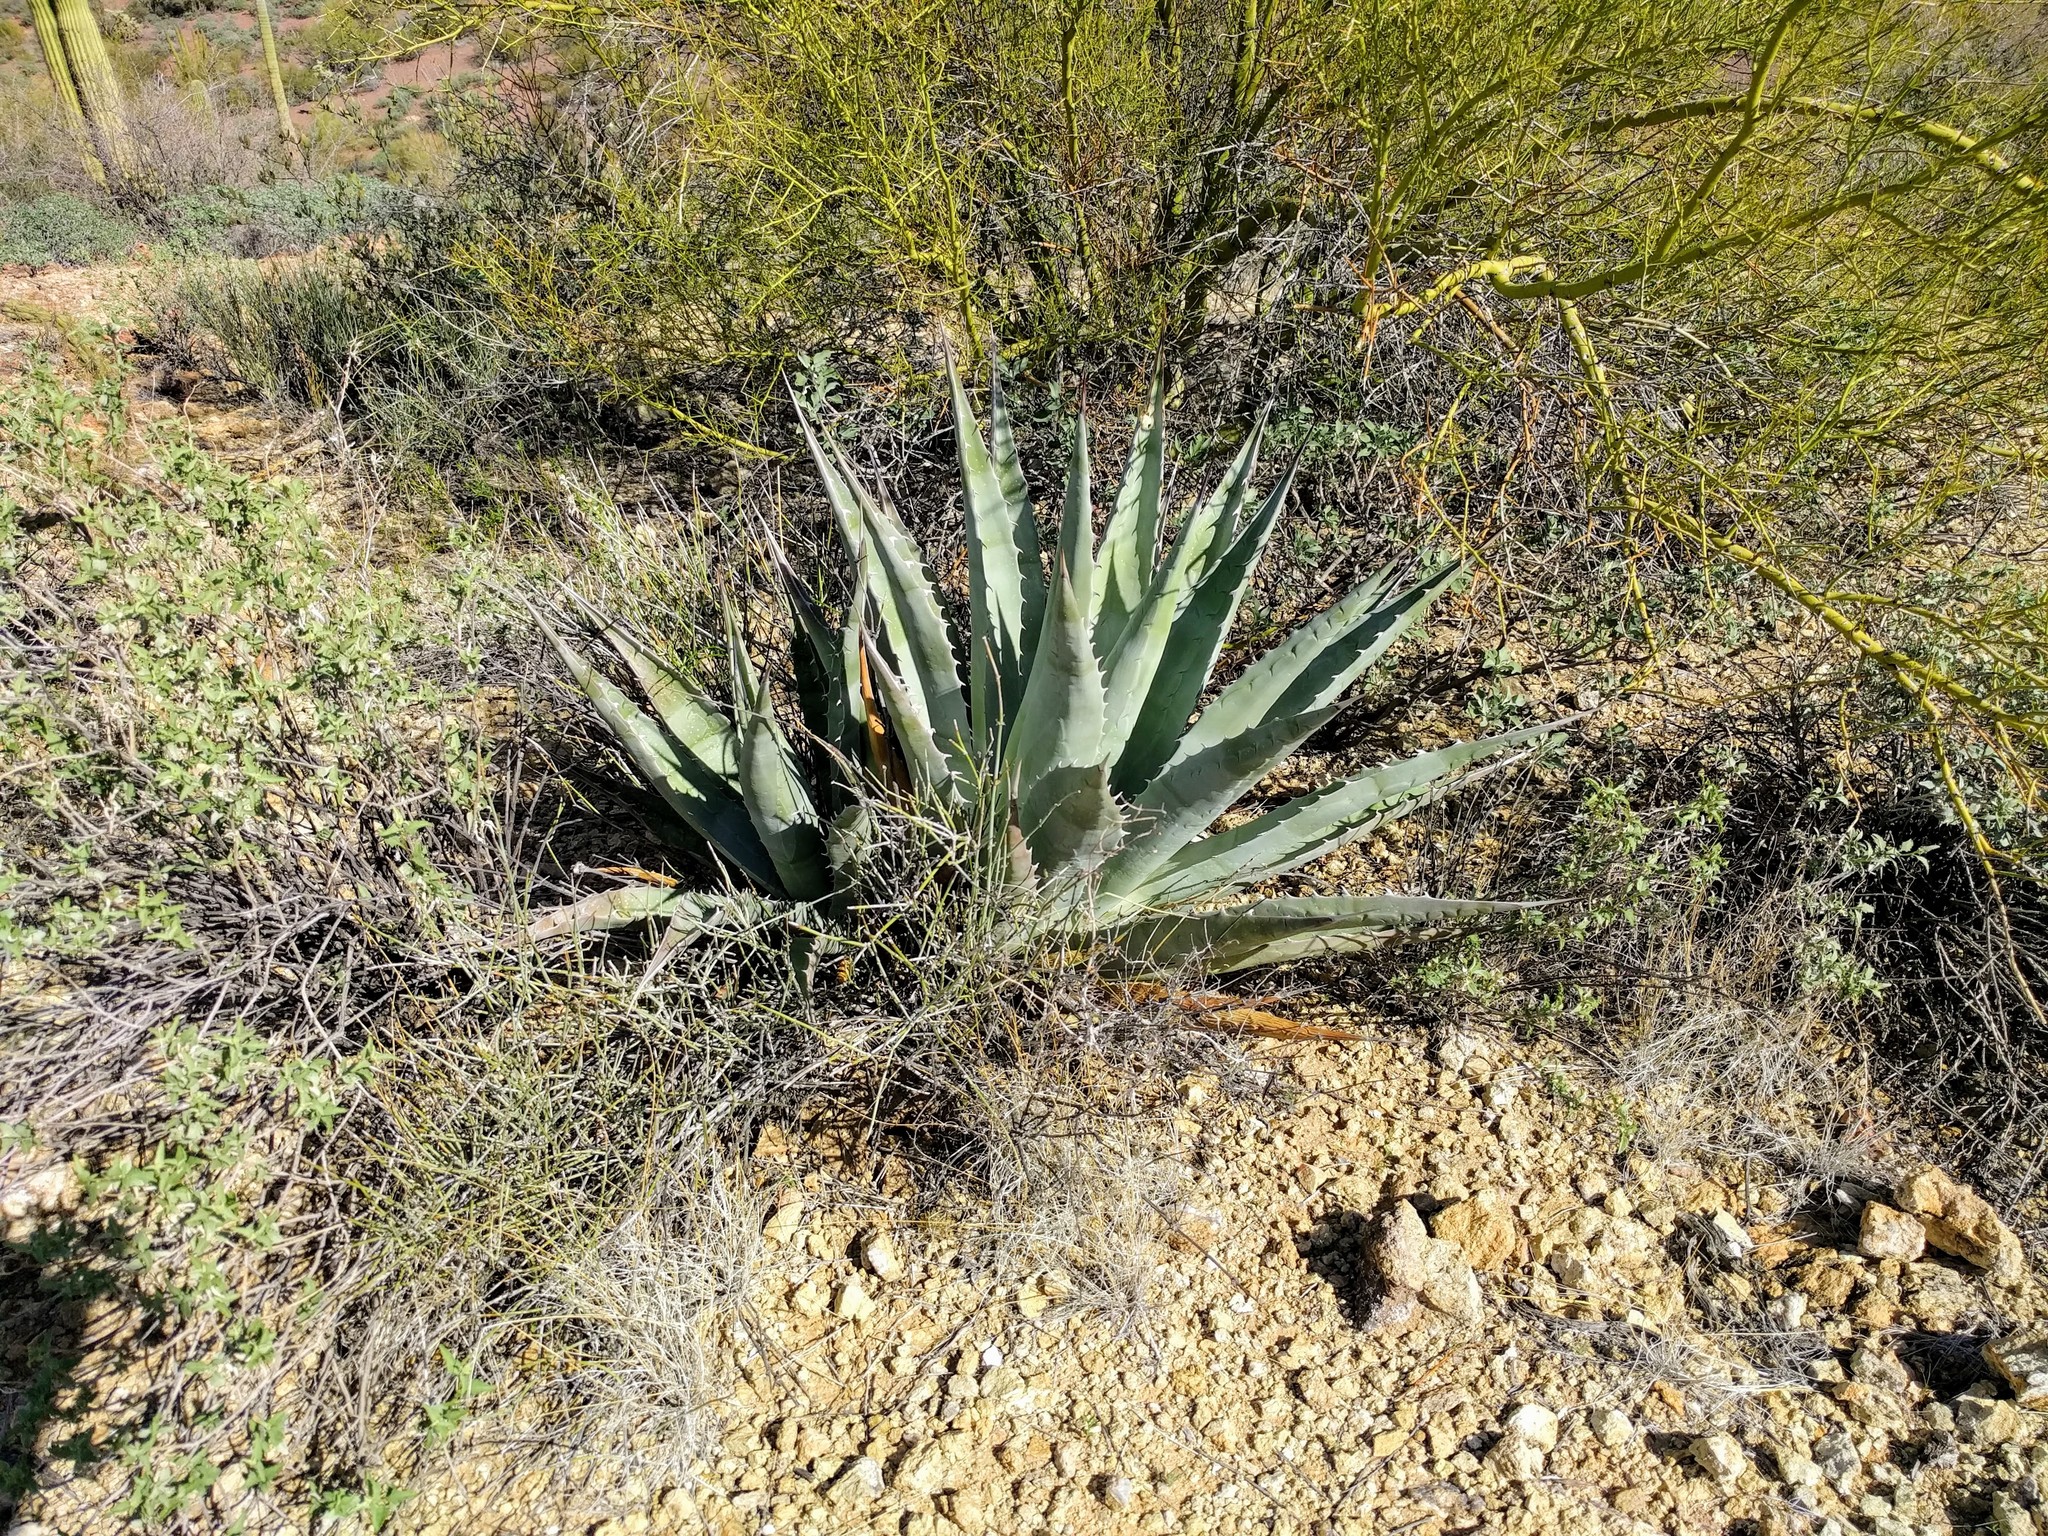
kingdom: Plantae
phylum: Tracheophyta
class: Liliopsida
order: Asparagales
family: Asparagaceae
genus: Agave
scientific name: Agave simplex
